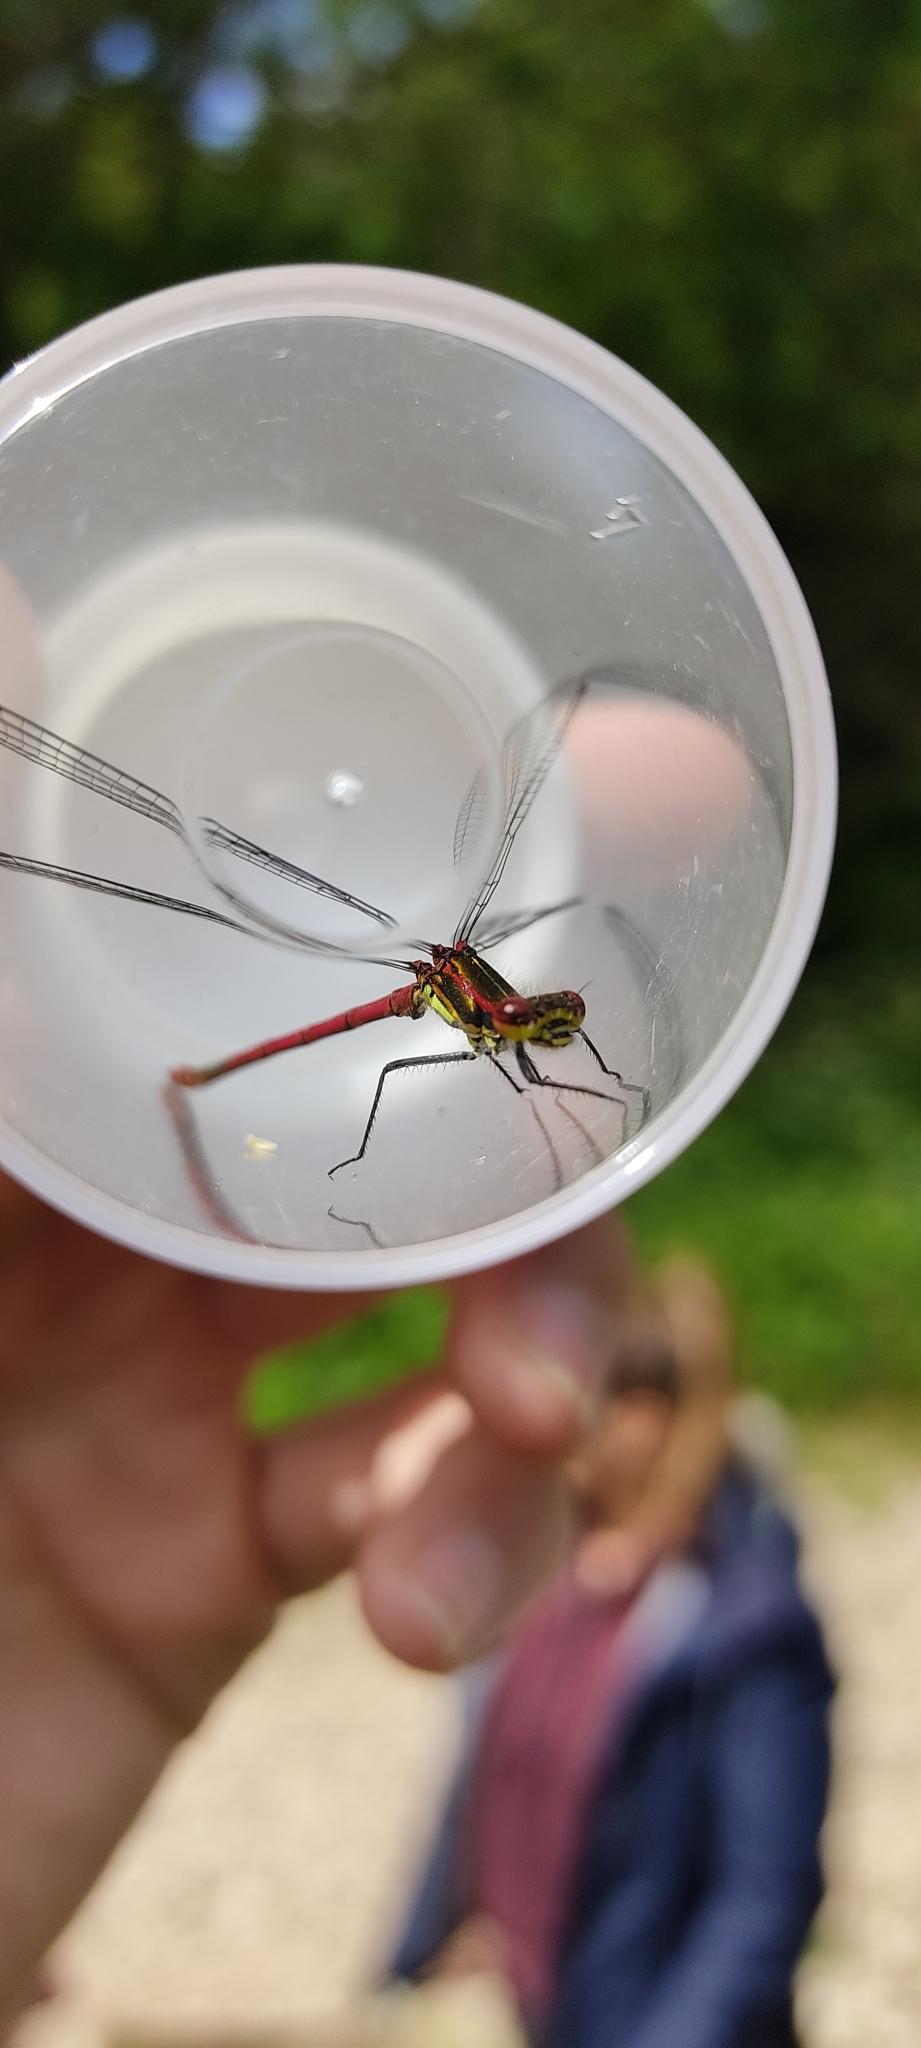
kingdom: Animalia
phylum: Arthropoda
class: Insecta
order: Odonata
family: Coenagrionidae
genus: Pyrrhosoma
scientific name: Pyrrhosoma nymphula
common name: Large red damsel
